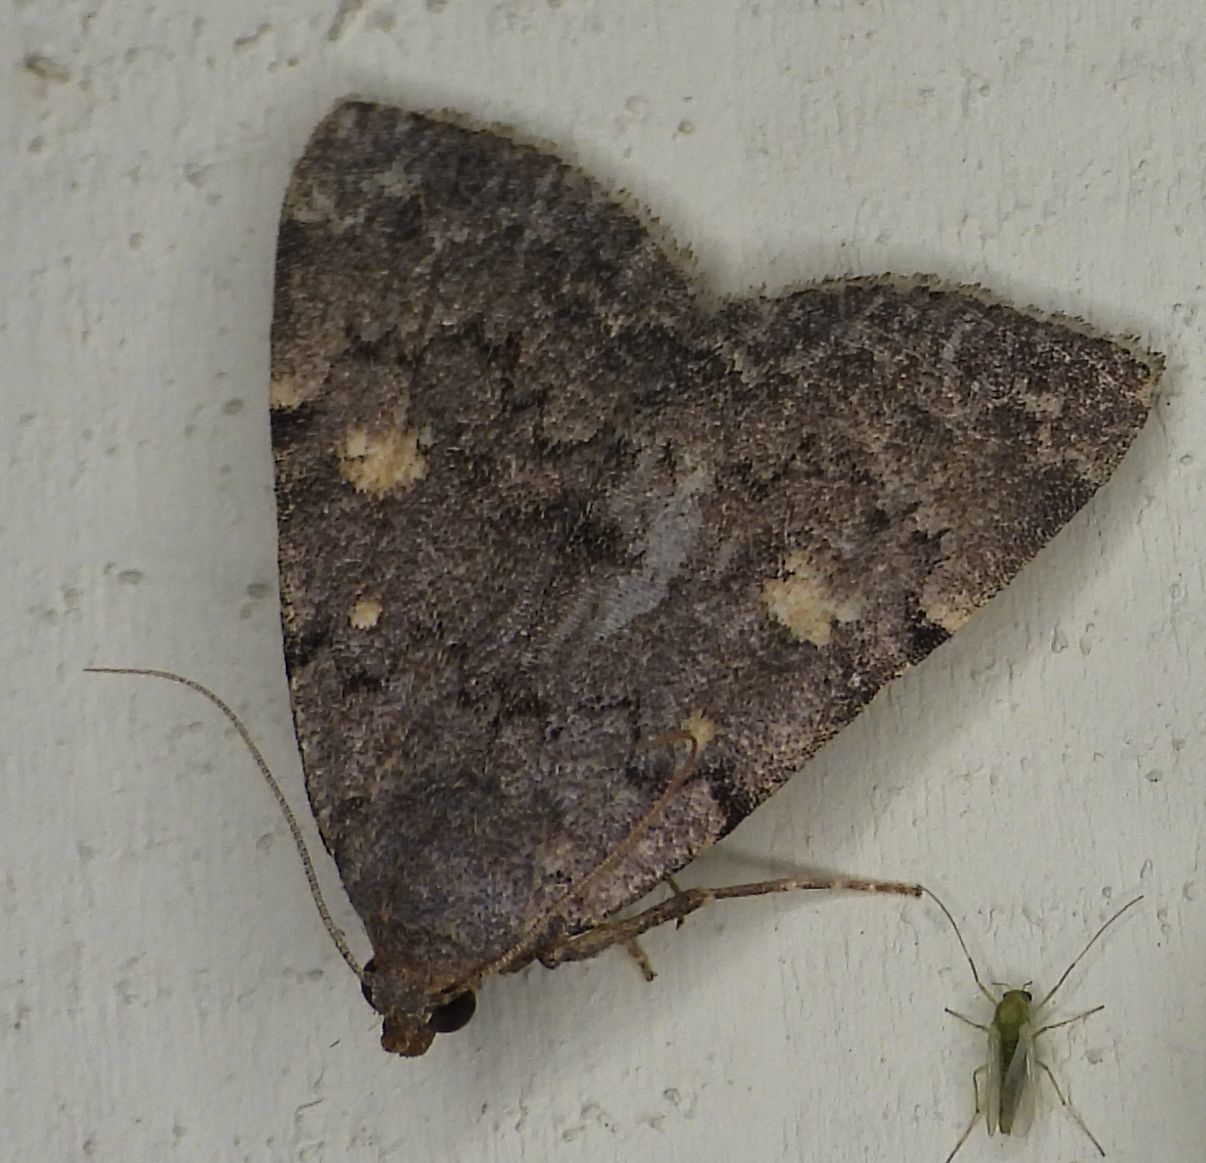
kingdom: Animalia
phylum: Arthropoda
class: Insecta
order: Lepidoptera
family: Erebidae
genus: Idia
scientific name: Idia aemula
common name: Common idia moth
